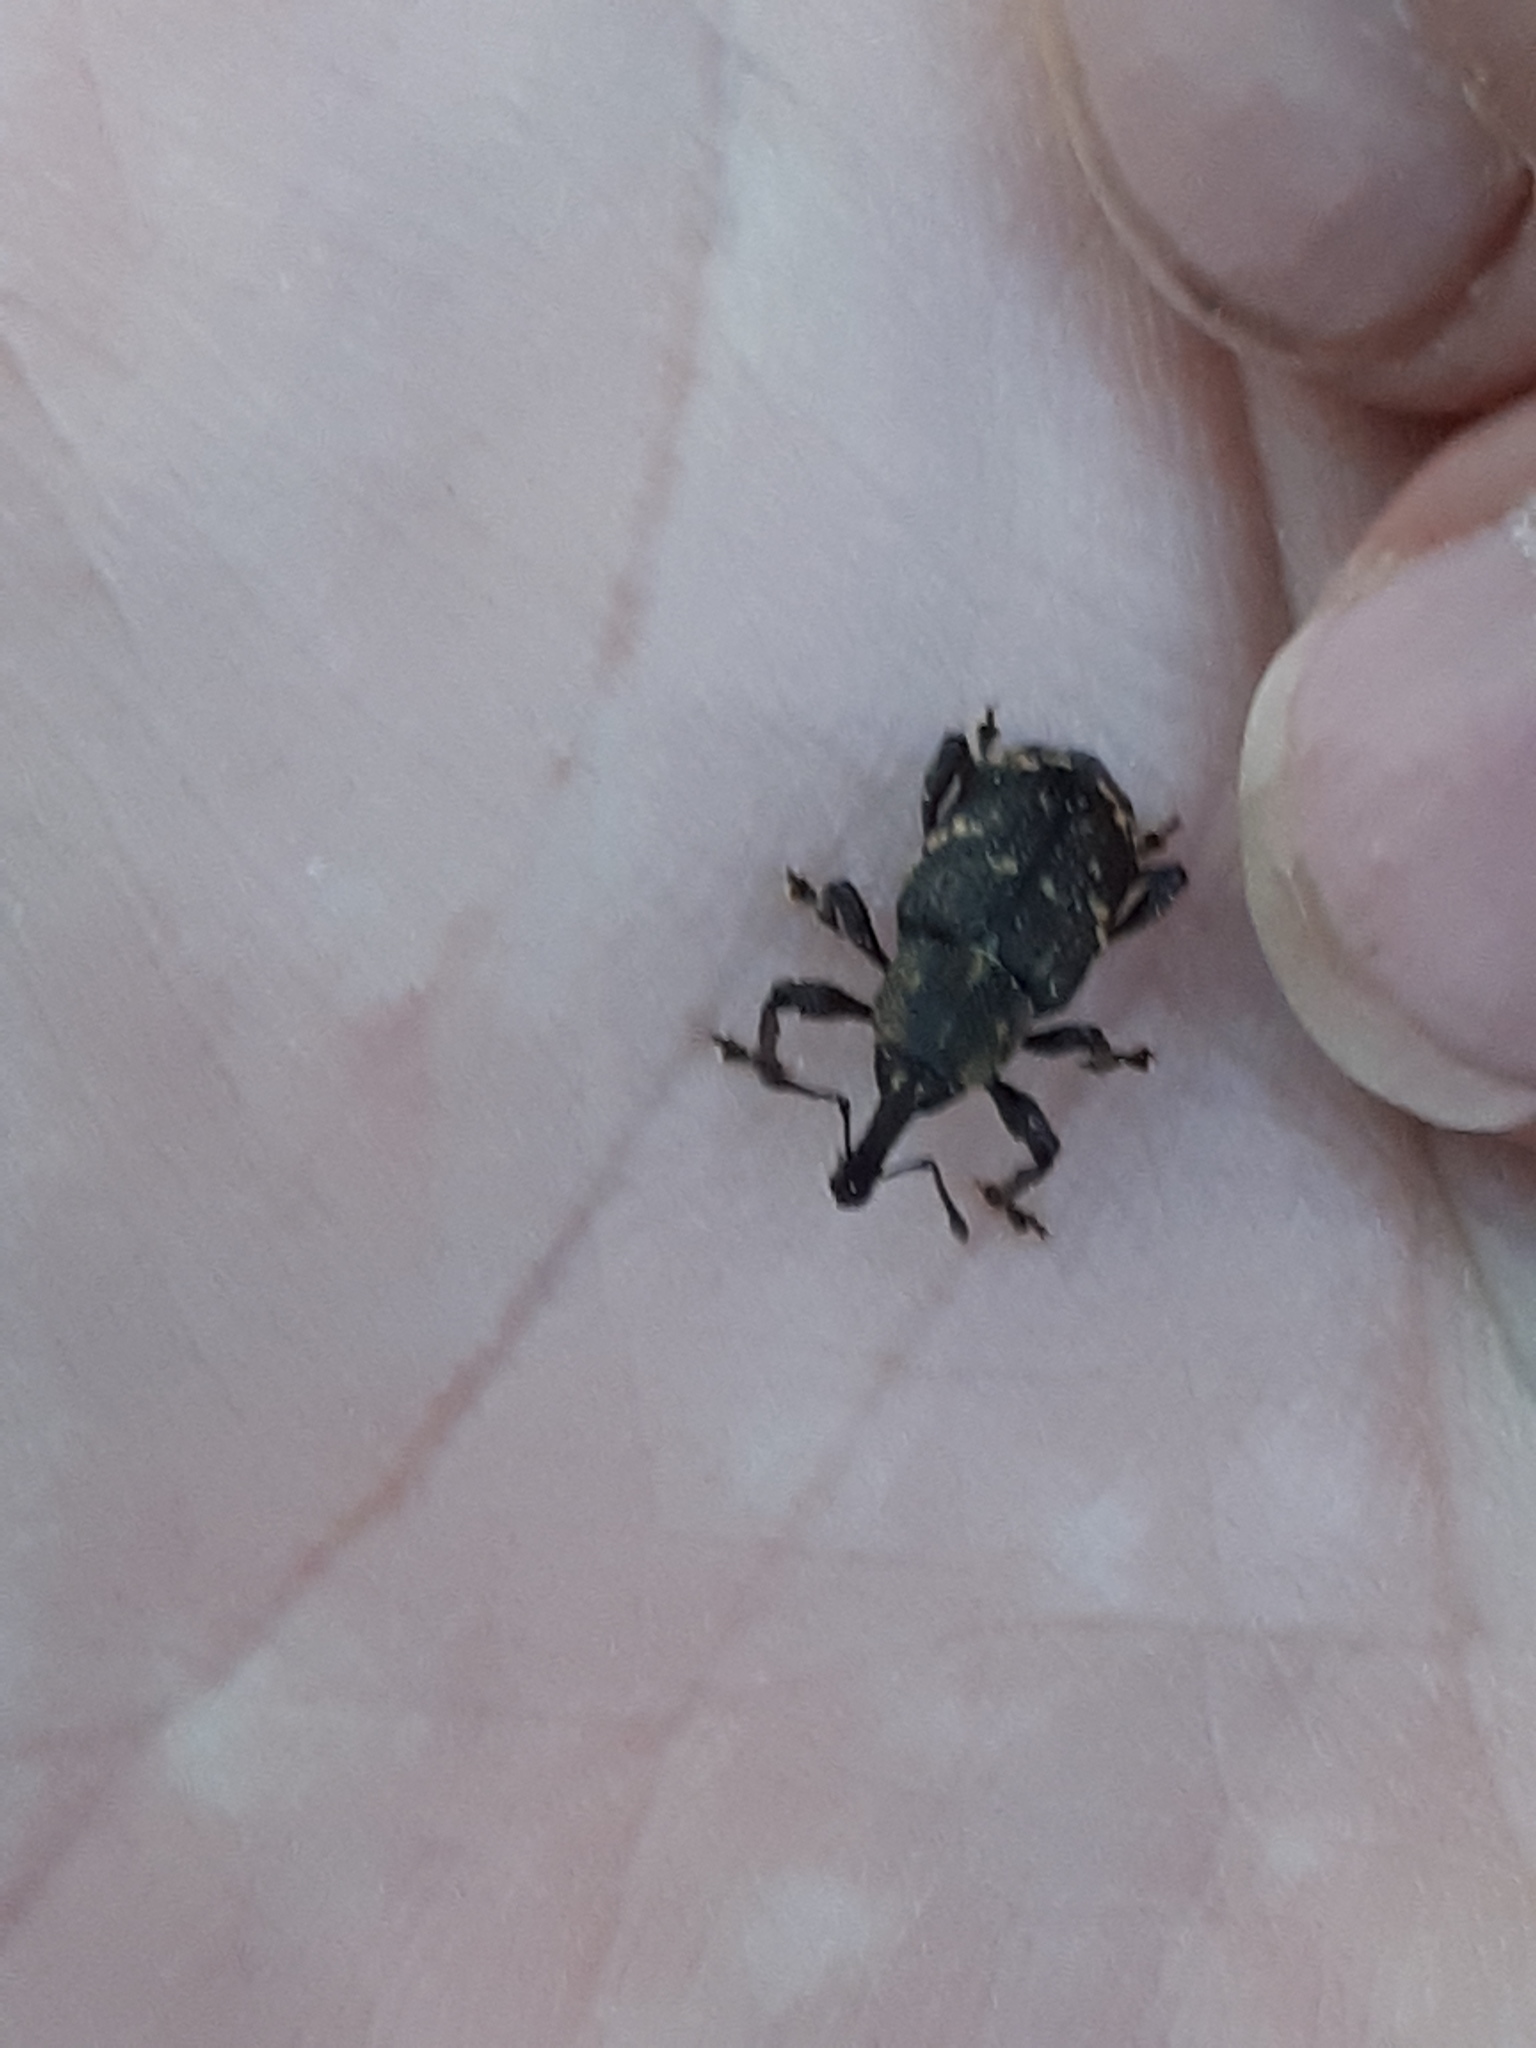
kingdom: Animalia
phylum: Arthropoda
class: Insecta
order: Coleoptera
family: Curculionidae
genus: Hylobius
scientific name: Hylobius abietis
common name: Large pine weevil
